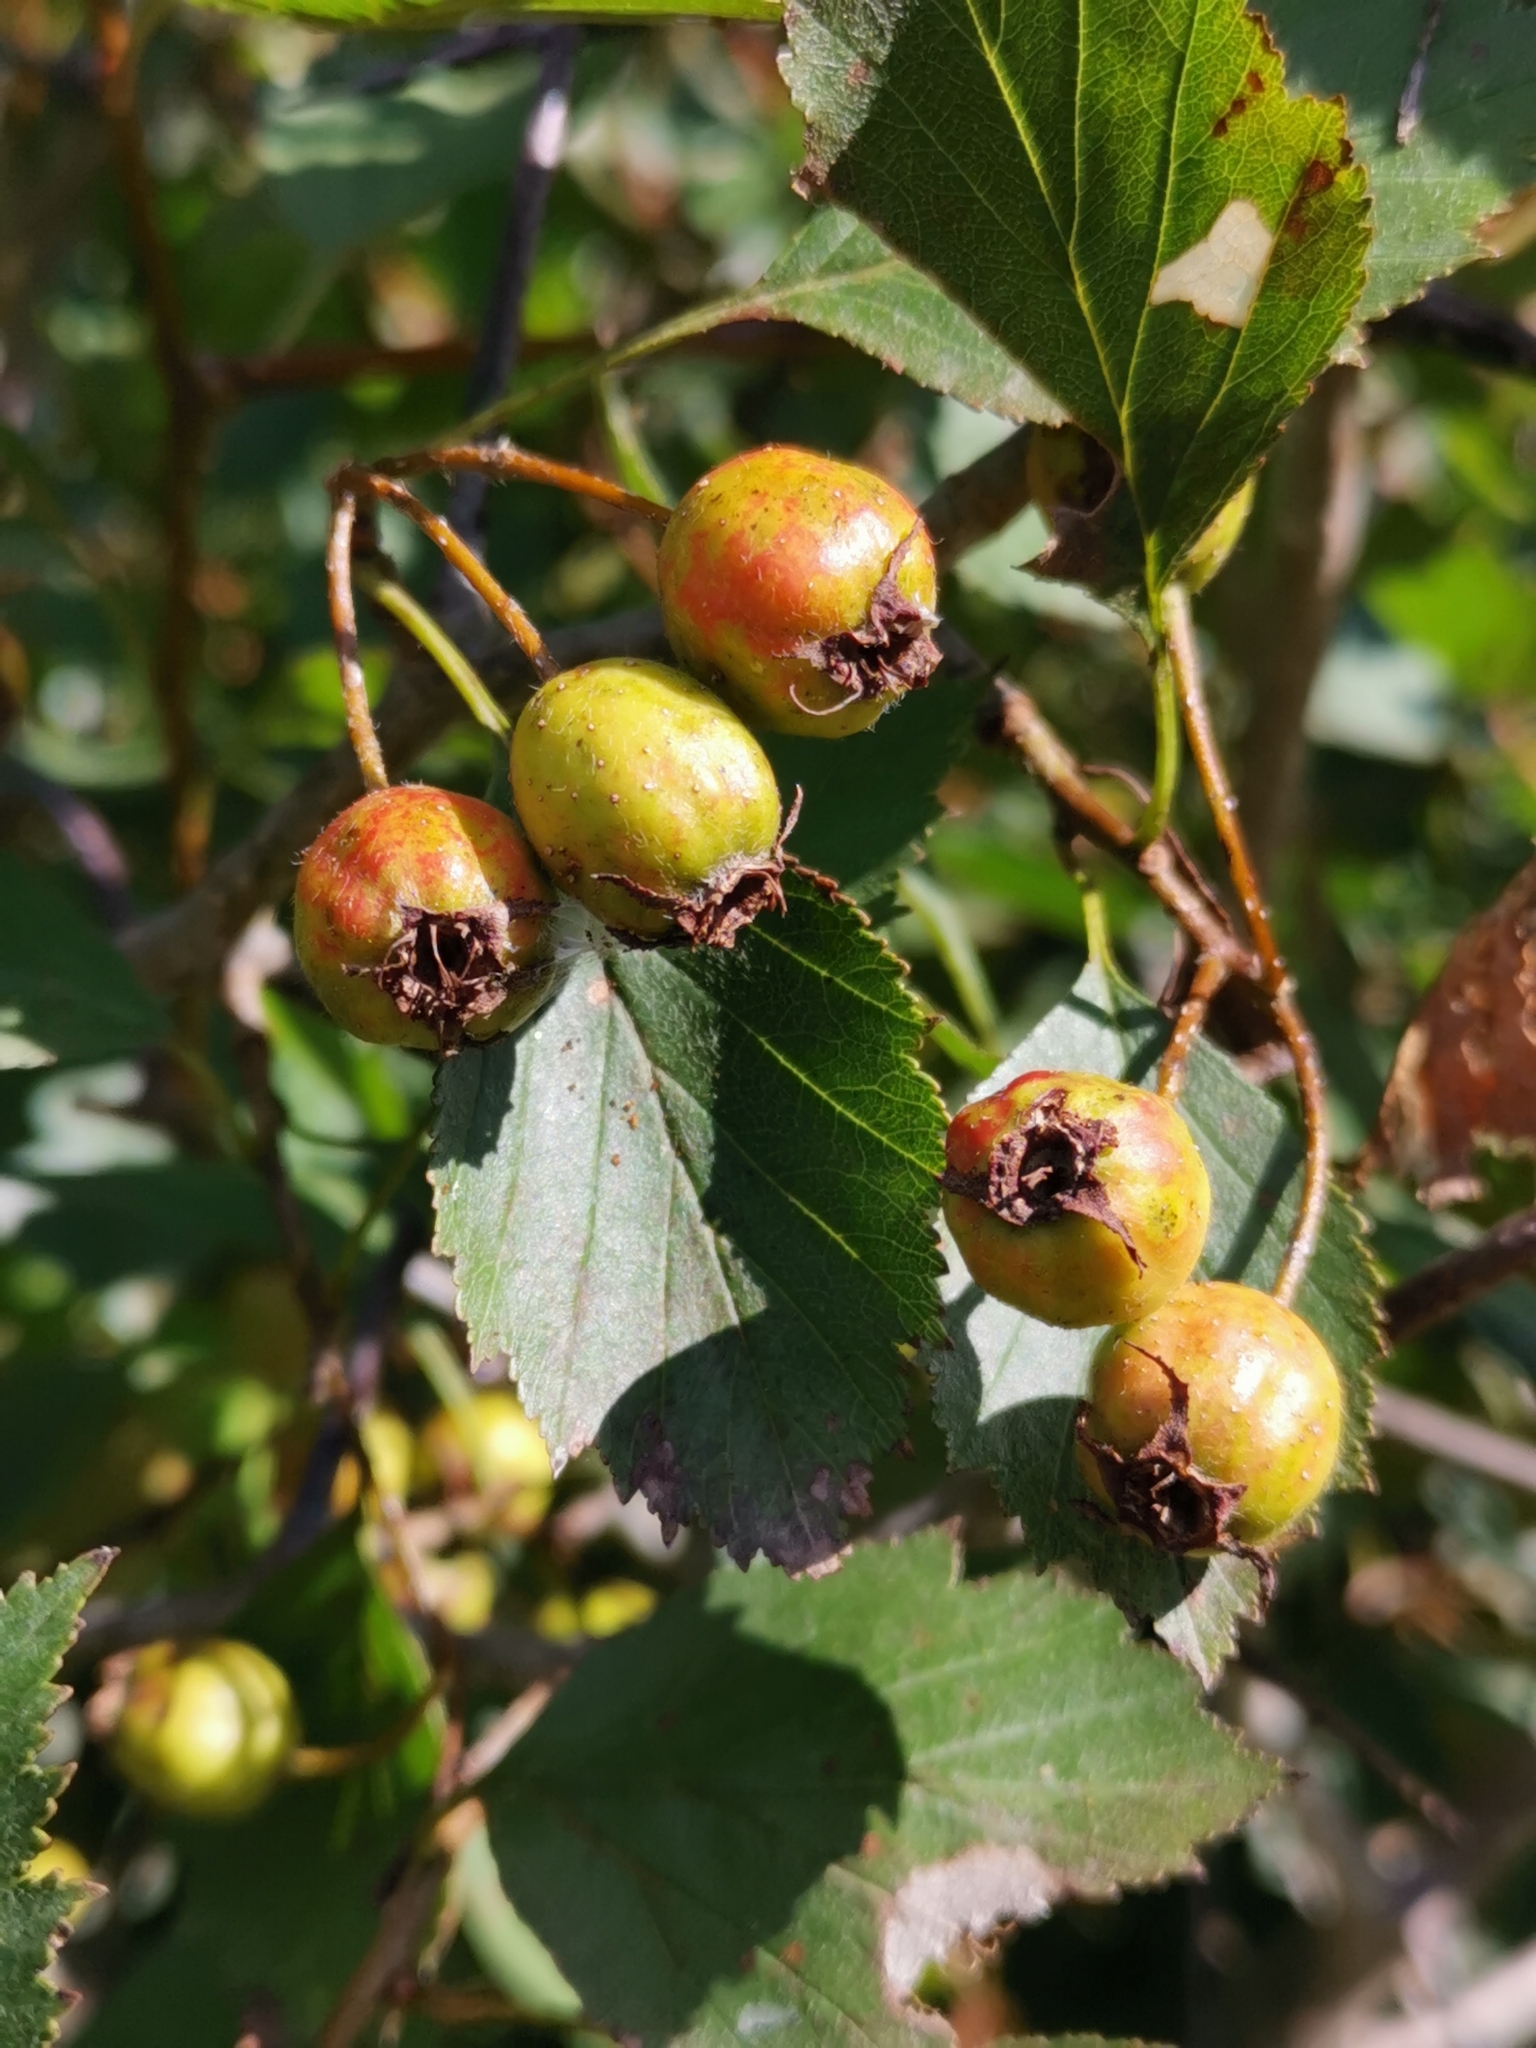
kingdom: Plantae
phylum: Tracheophyta
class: Magnoliopsida
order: Rosales
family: Rosaceae
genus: Crataegus
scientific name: Crataegus chrysocarpa
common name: Fire-berry hawthorn
